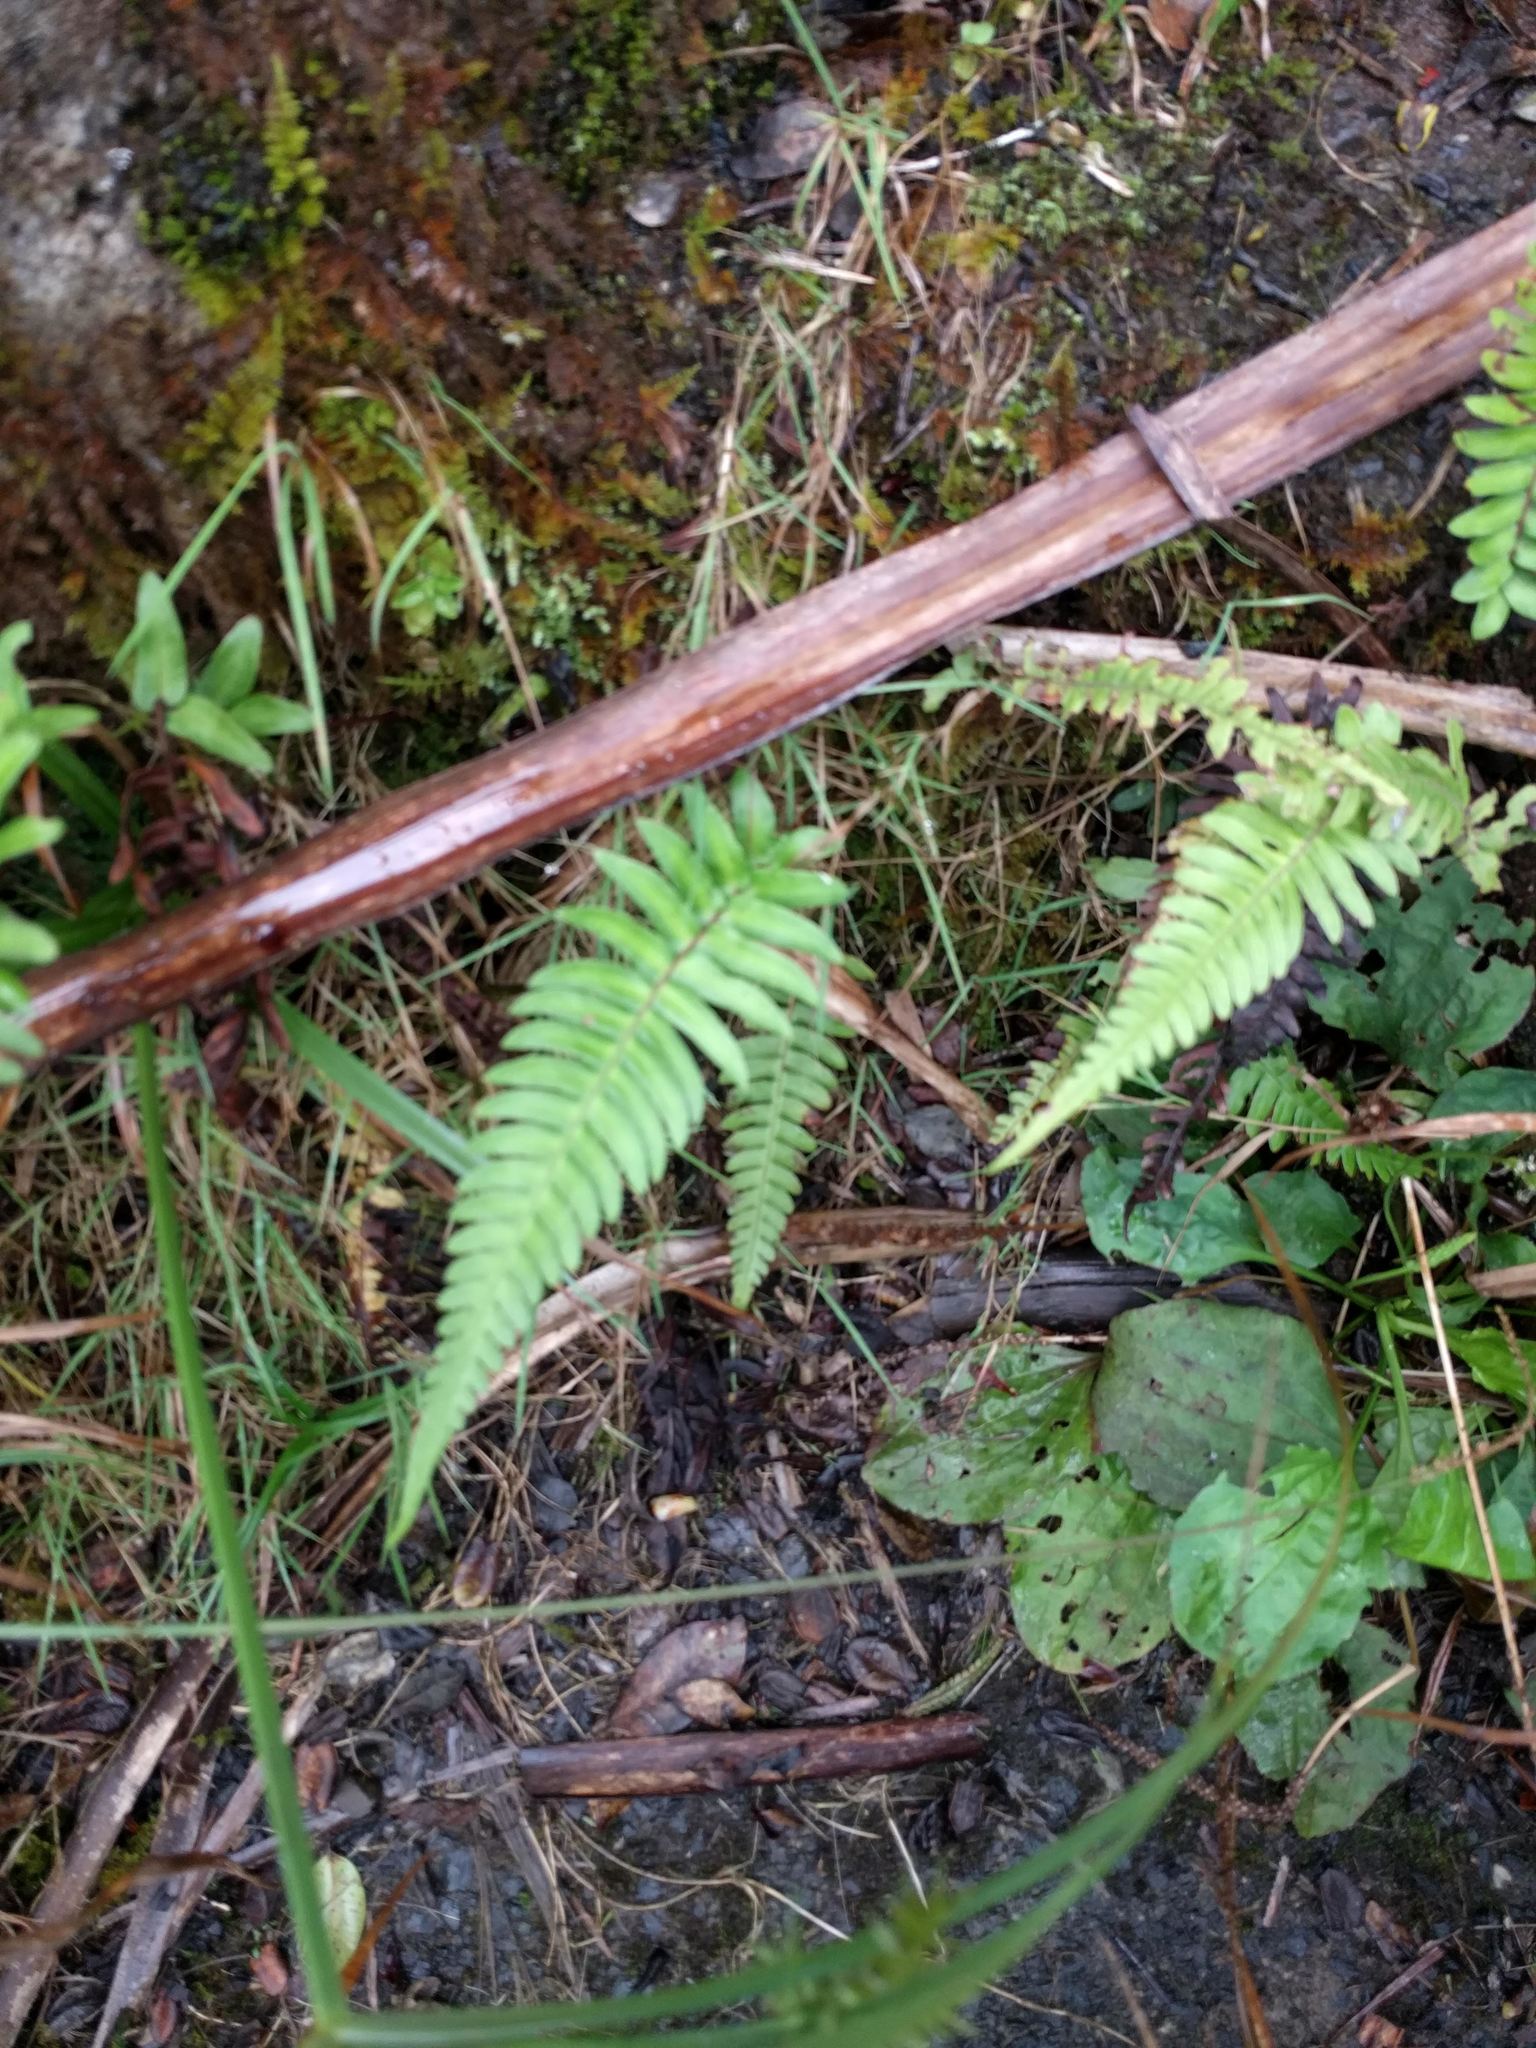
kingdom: Plantae
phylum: Tracheophyta
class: Polypodiopsida
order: Polypodiales
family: Blechnaceae
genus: Blechnum
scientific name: Blechnum appendiculatum
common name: Palm fern
